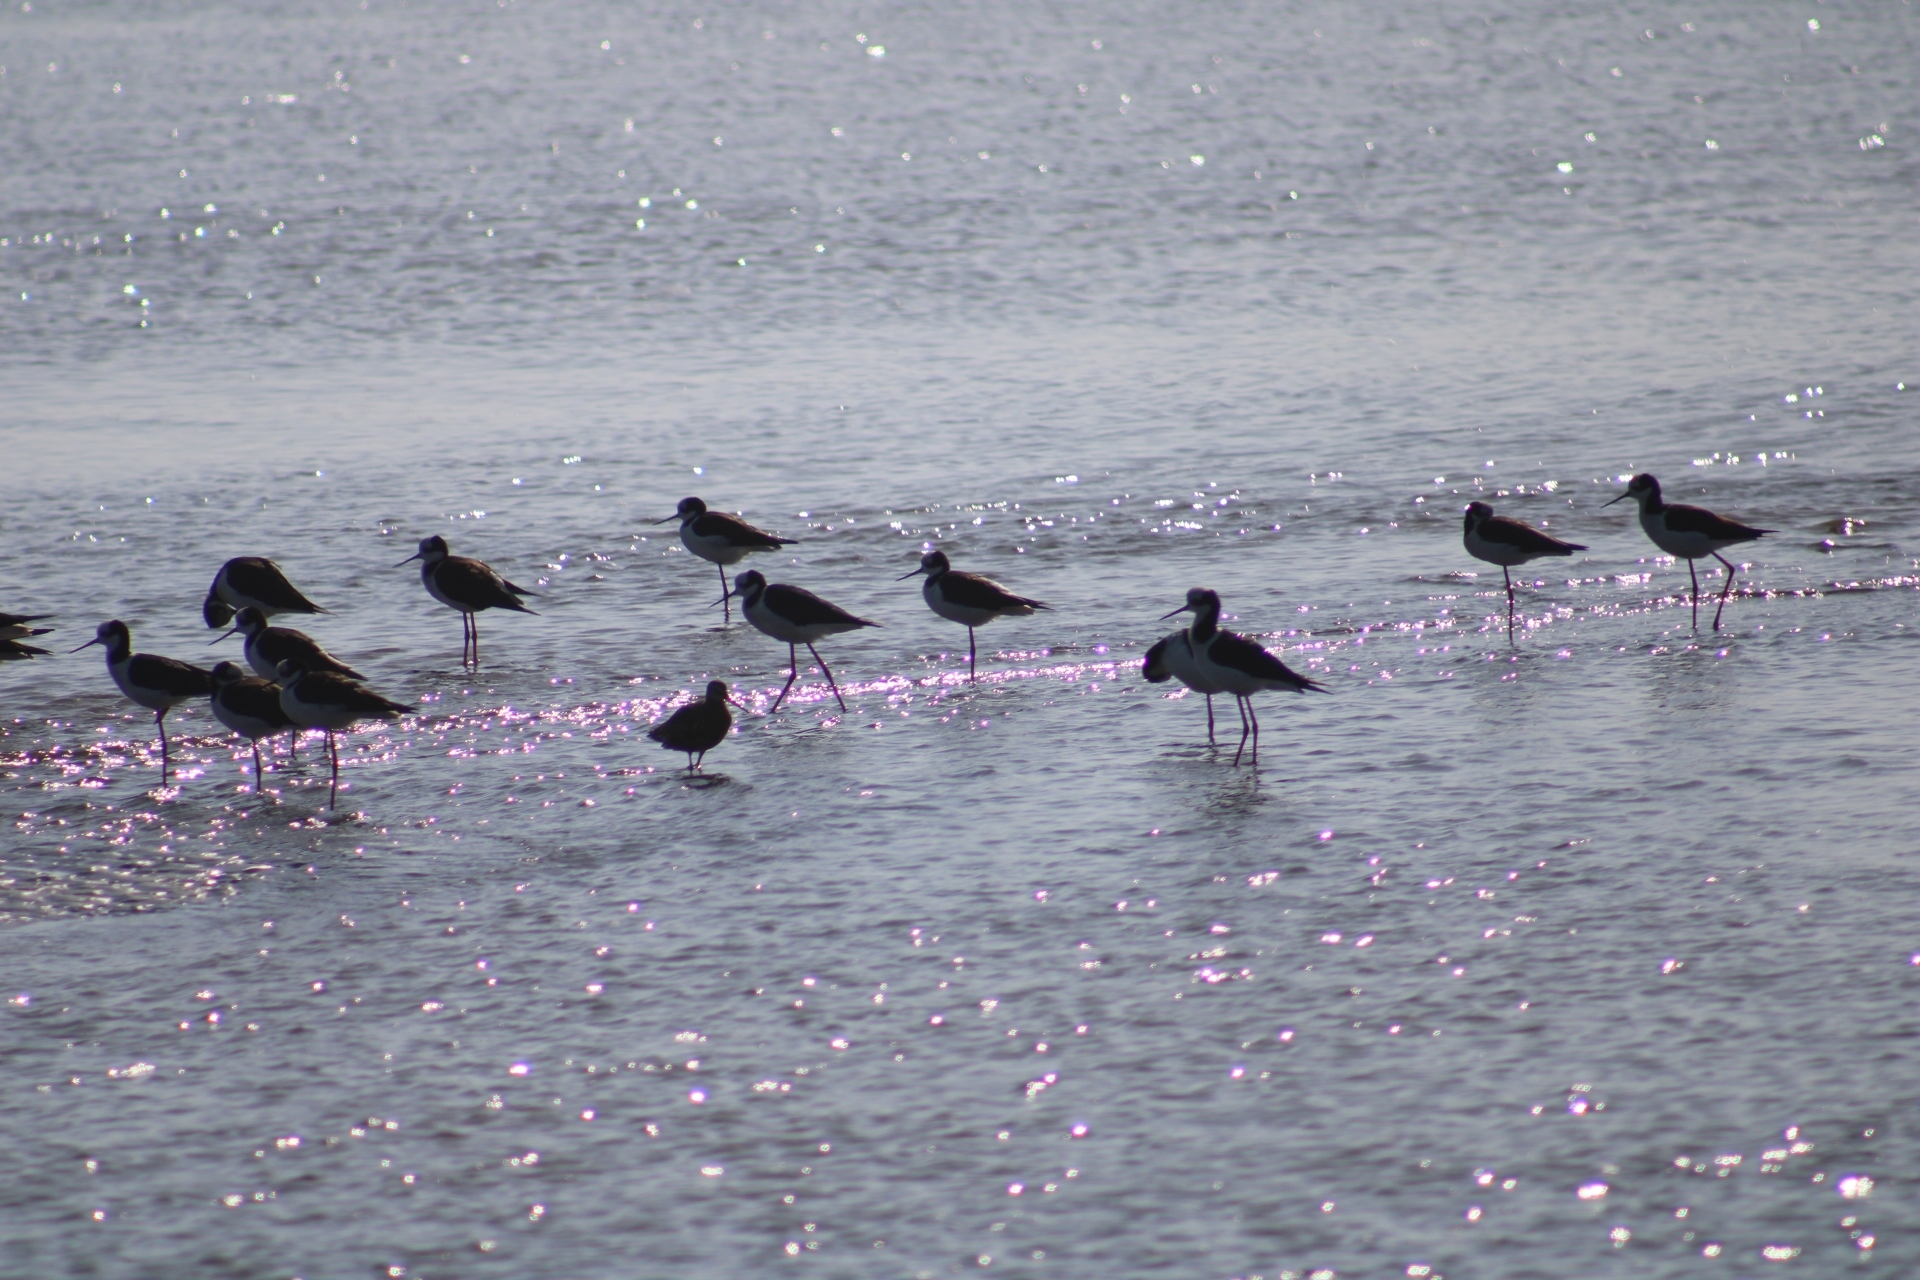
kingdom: Animalia
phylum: Chordata
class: Aves
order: Charadriiformes
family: Recurvirostridae
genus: Himantopus
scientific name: Himantopus mexicanus
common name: Black-necked stilt
